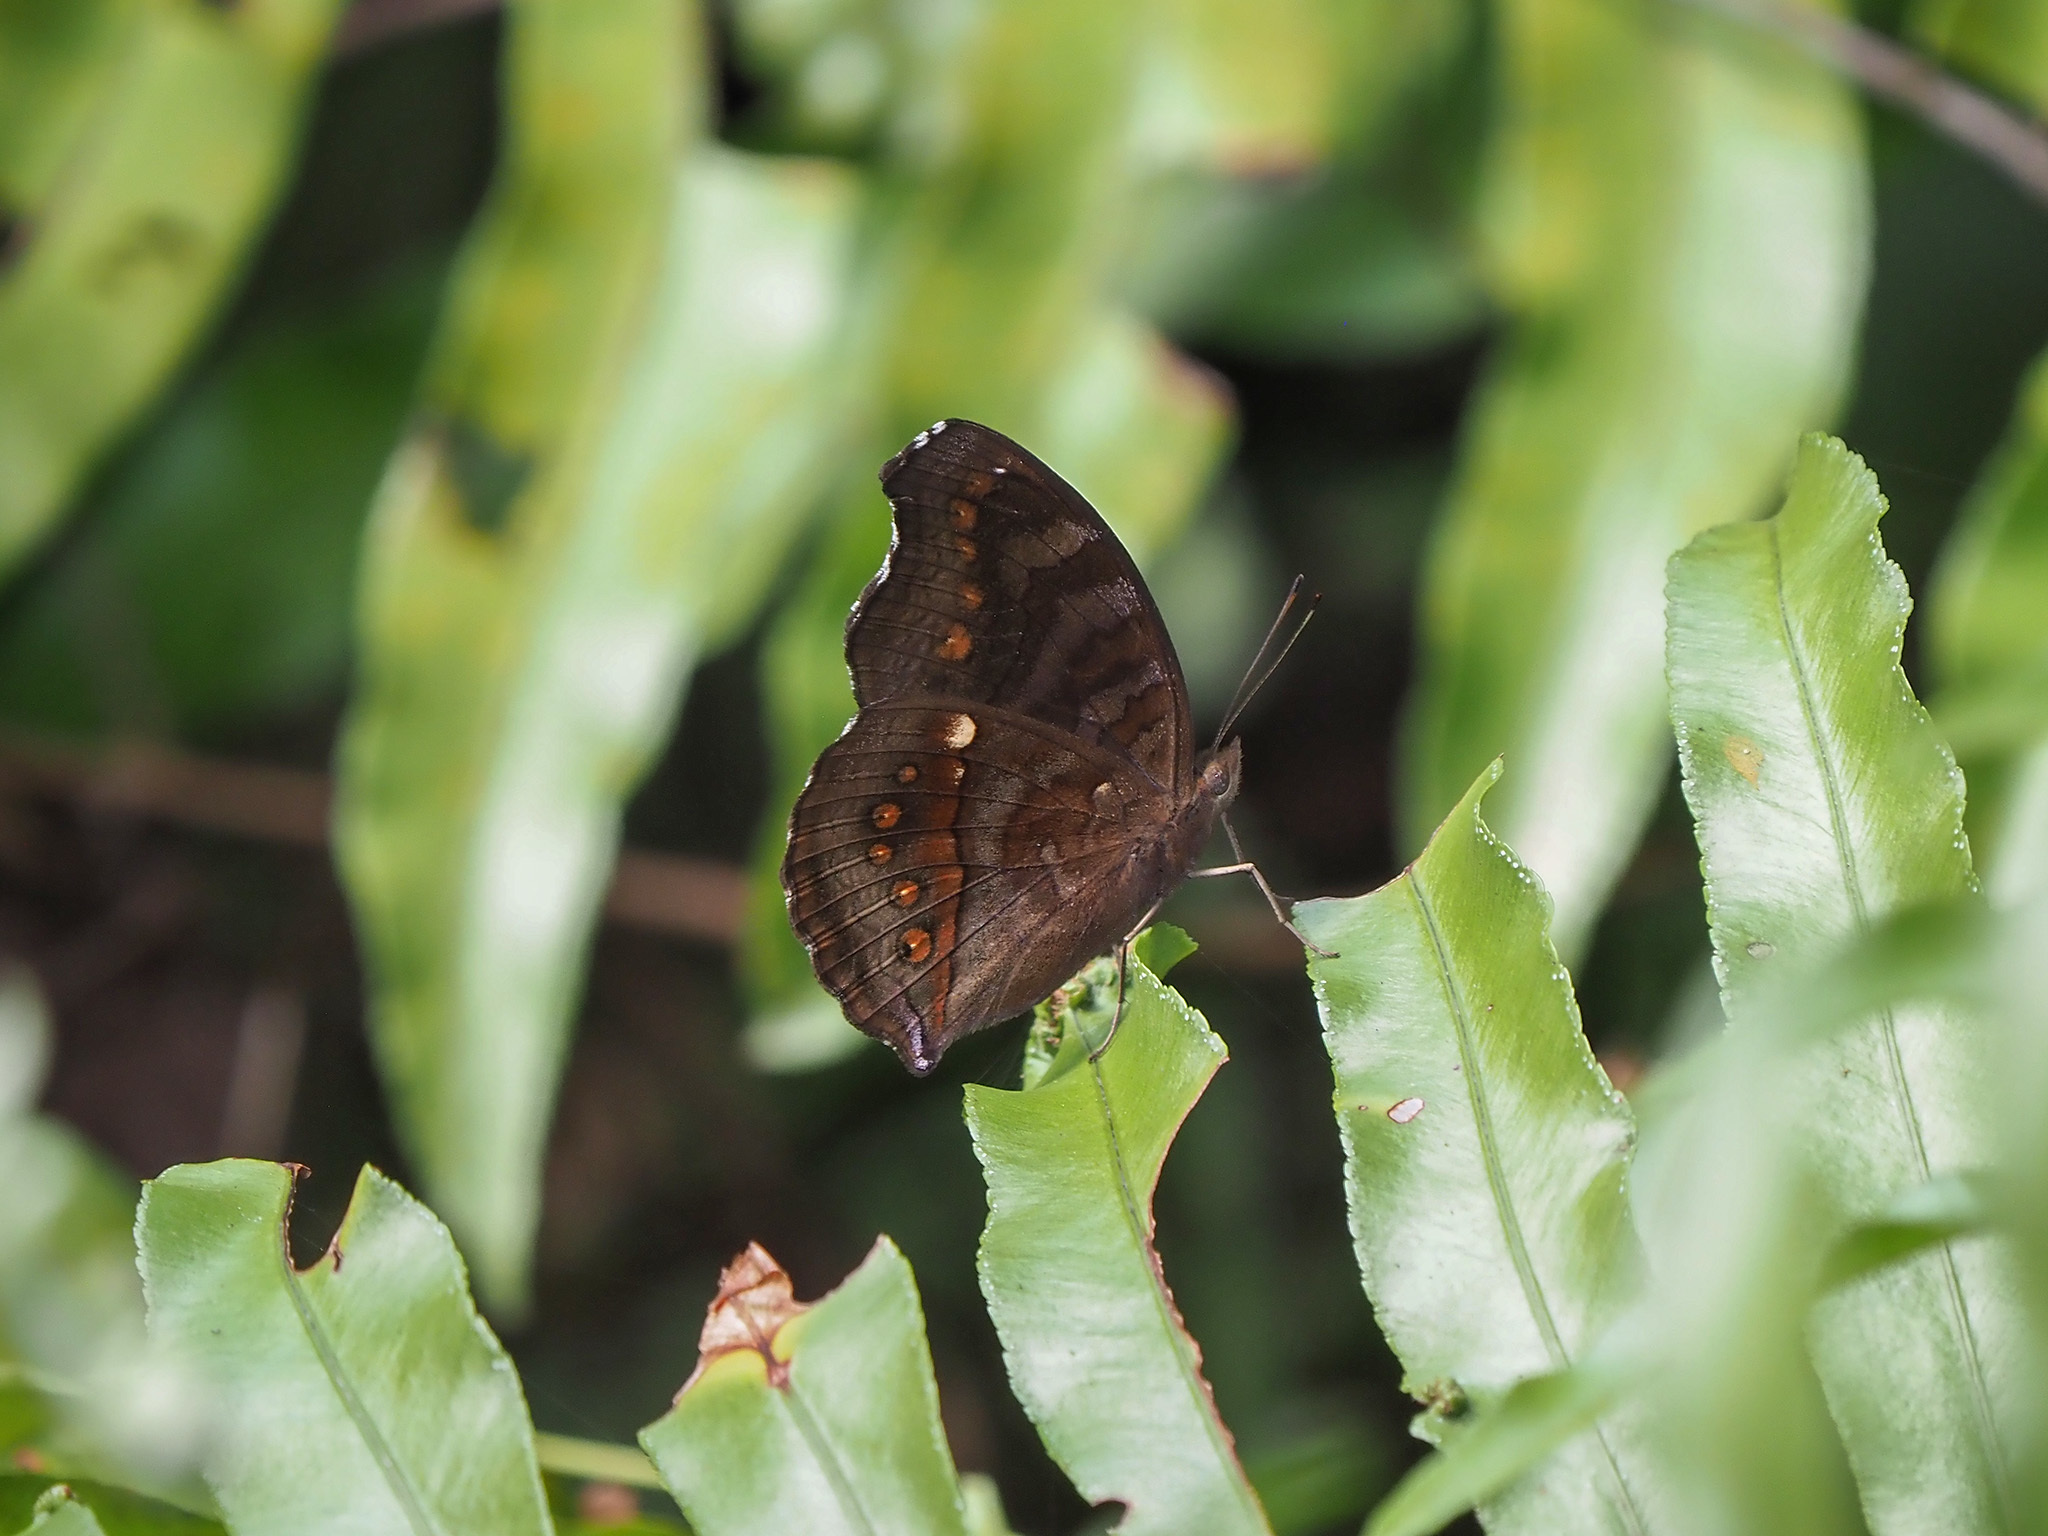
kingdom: Animalia
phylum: Arthropoda
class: Insecta
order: Lepidoptera
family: Nymphalidae
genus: Junonia
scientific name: Junonia hedonia
